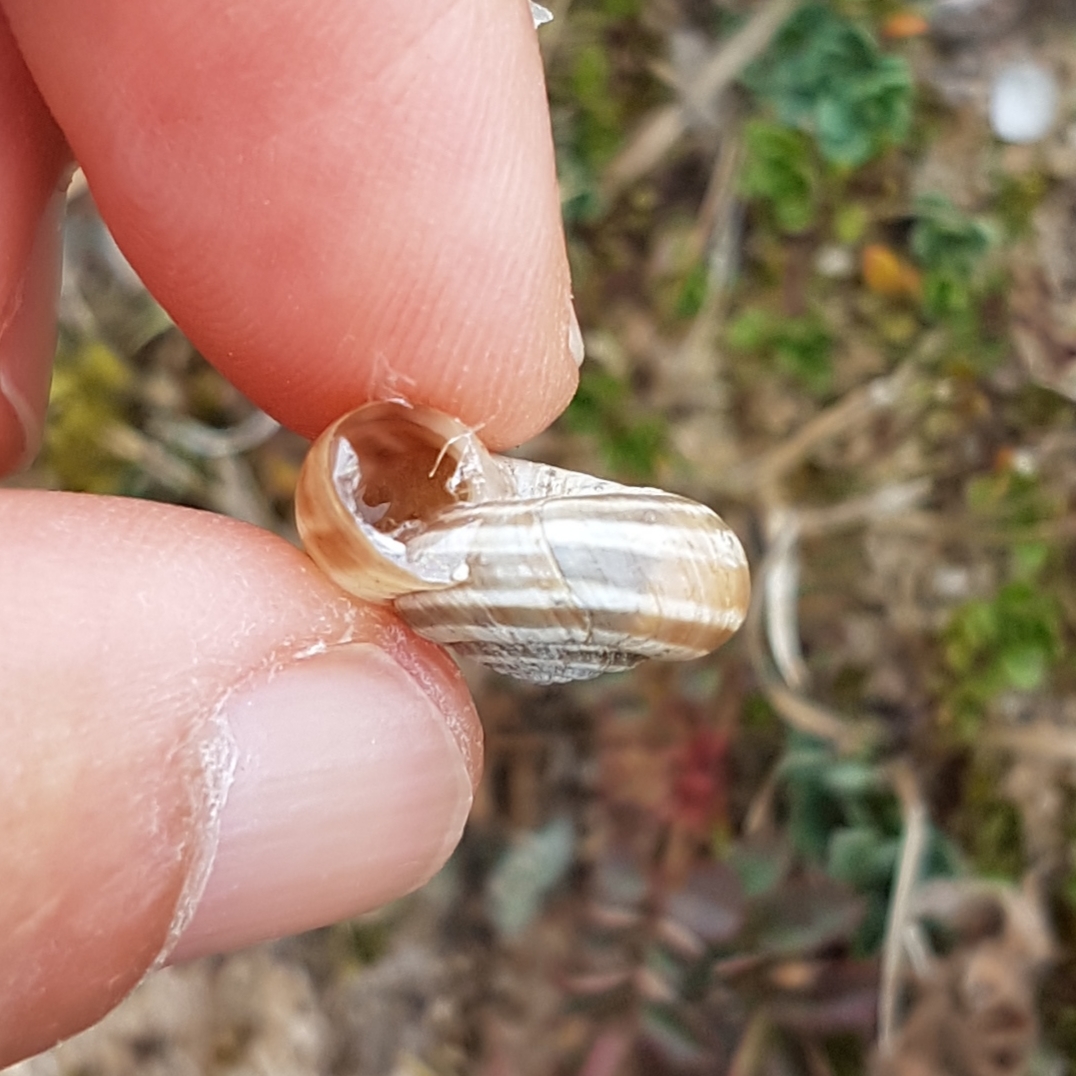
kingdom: Animalia
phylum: Mollusca
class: Gastropoda
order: Stylommatophora
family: Geomitridae
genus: Helicella
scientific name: Helicella itala
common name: Heath snail
